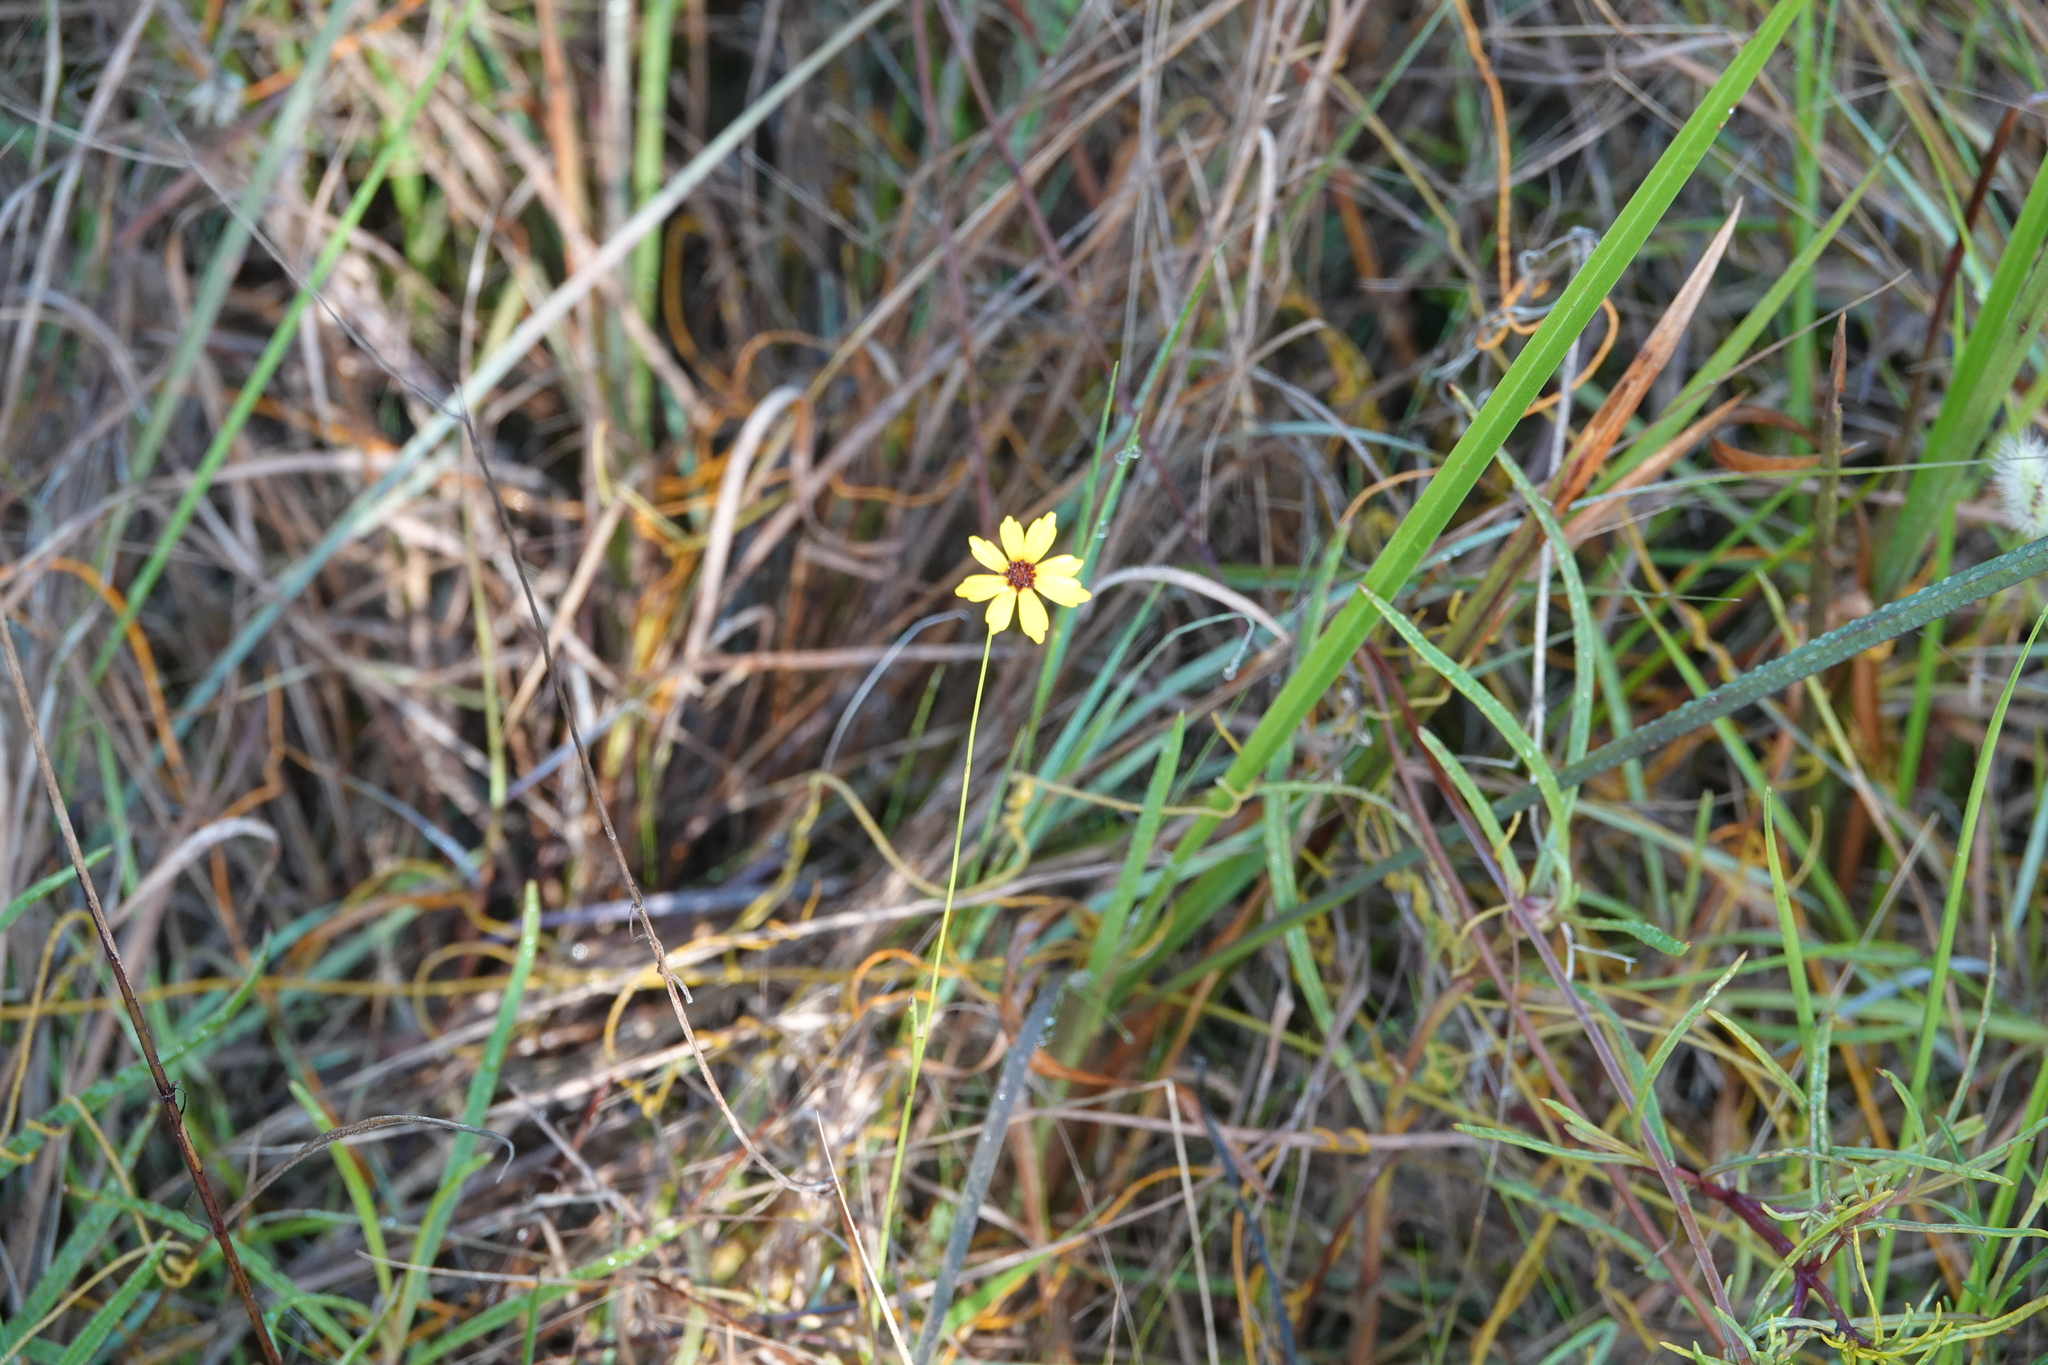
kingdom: Plantae
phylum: Tracheophyta
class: Magnoliopsida
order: Asterales
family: Asteraceae
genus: Coreopsis
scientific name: Coreopsis leavenworthii
